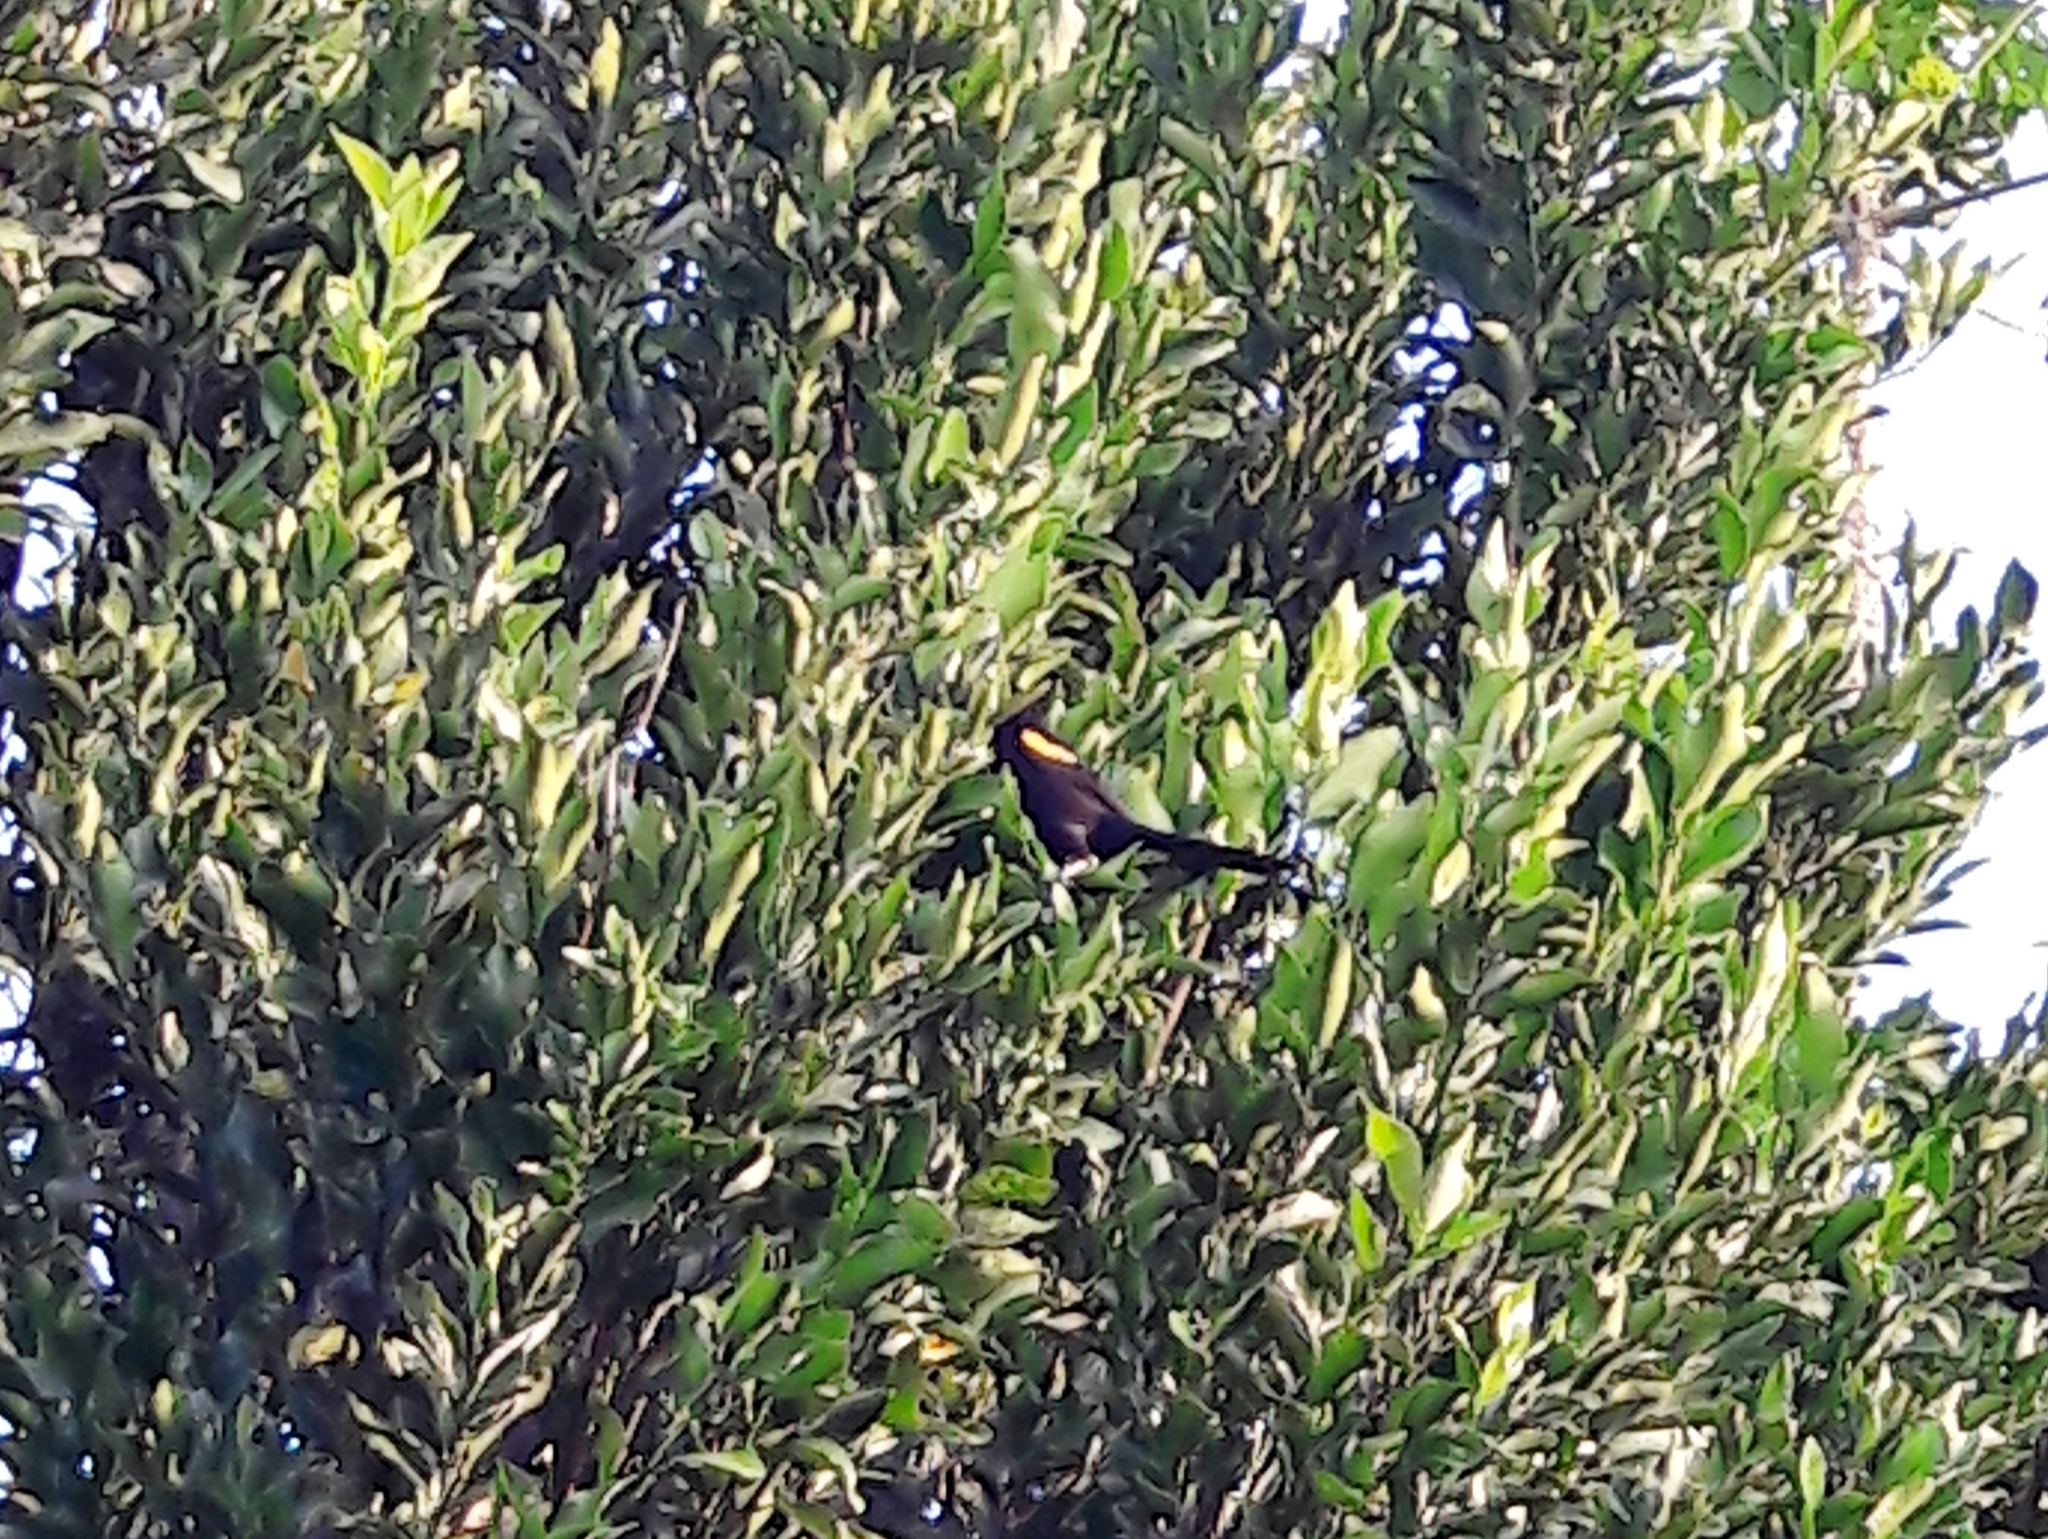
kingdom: Animalia
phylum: Chordata
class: Aves
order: Passeriformes
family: Icteridae
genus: Icterus
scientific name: Icterus cayanensis
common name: Epaulet oriole
